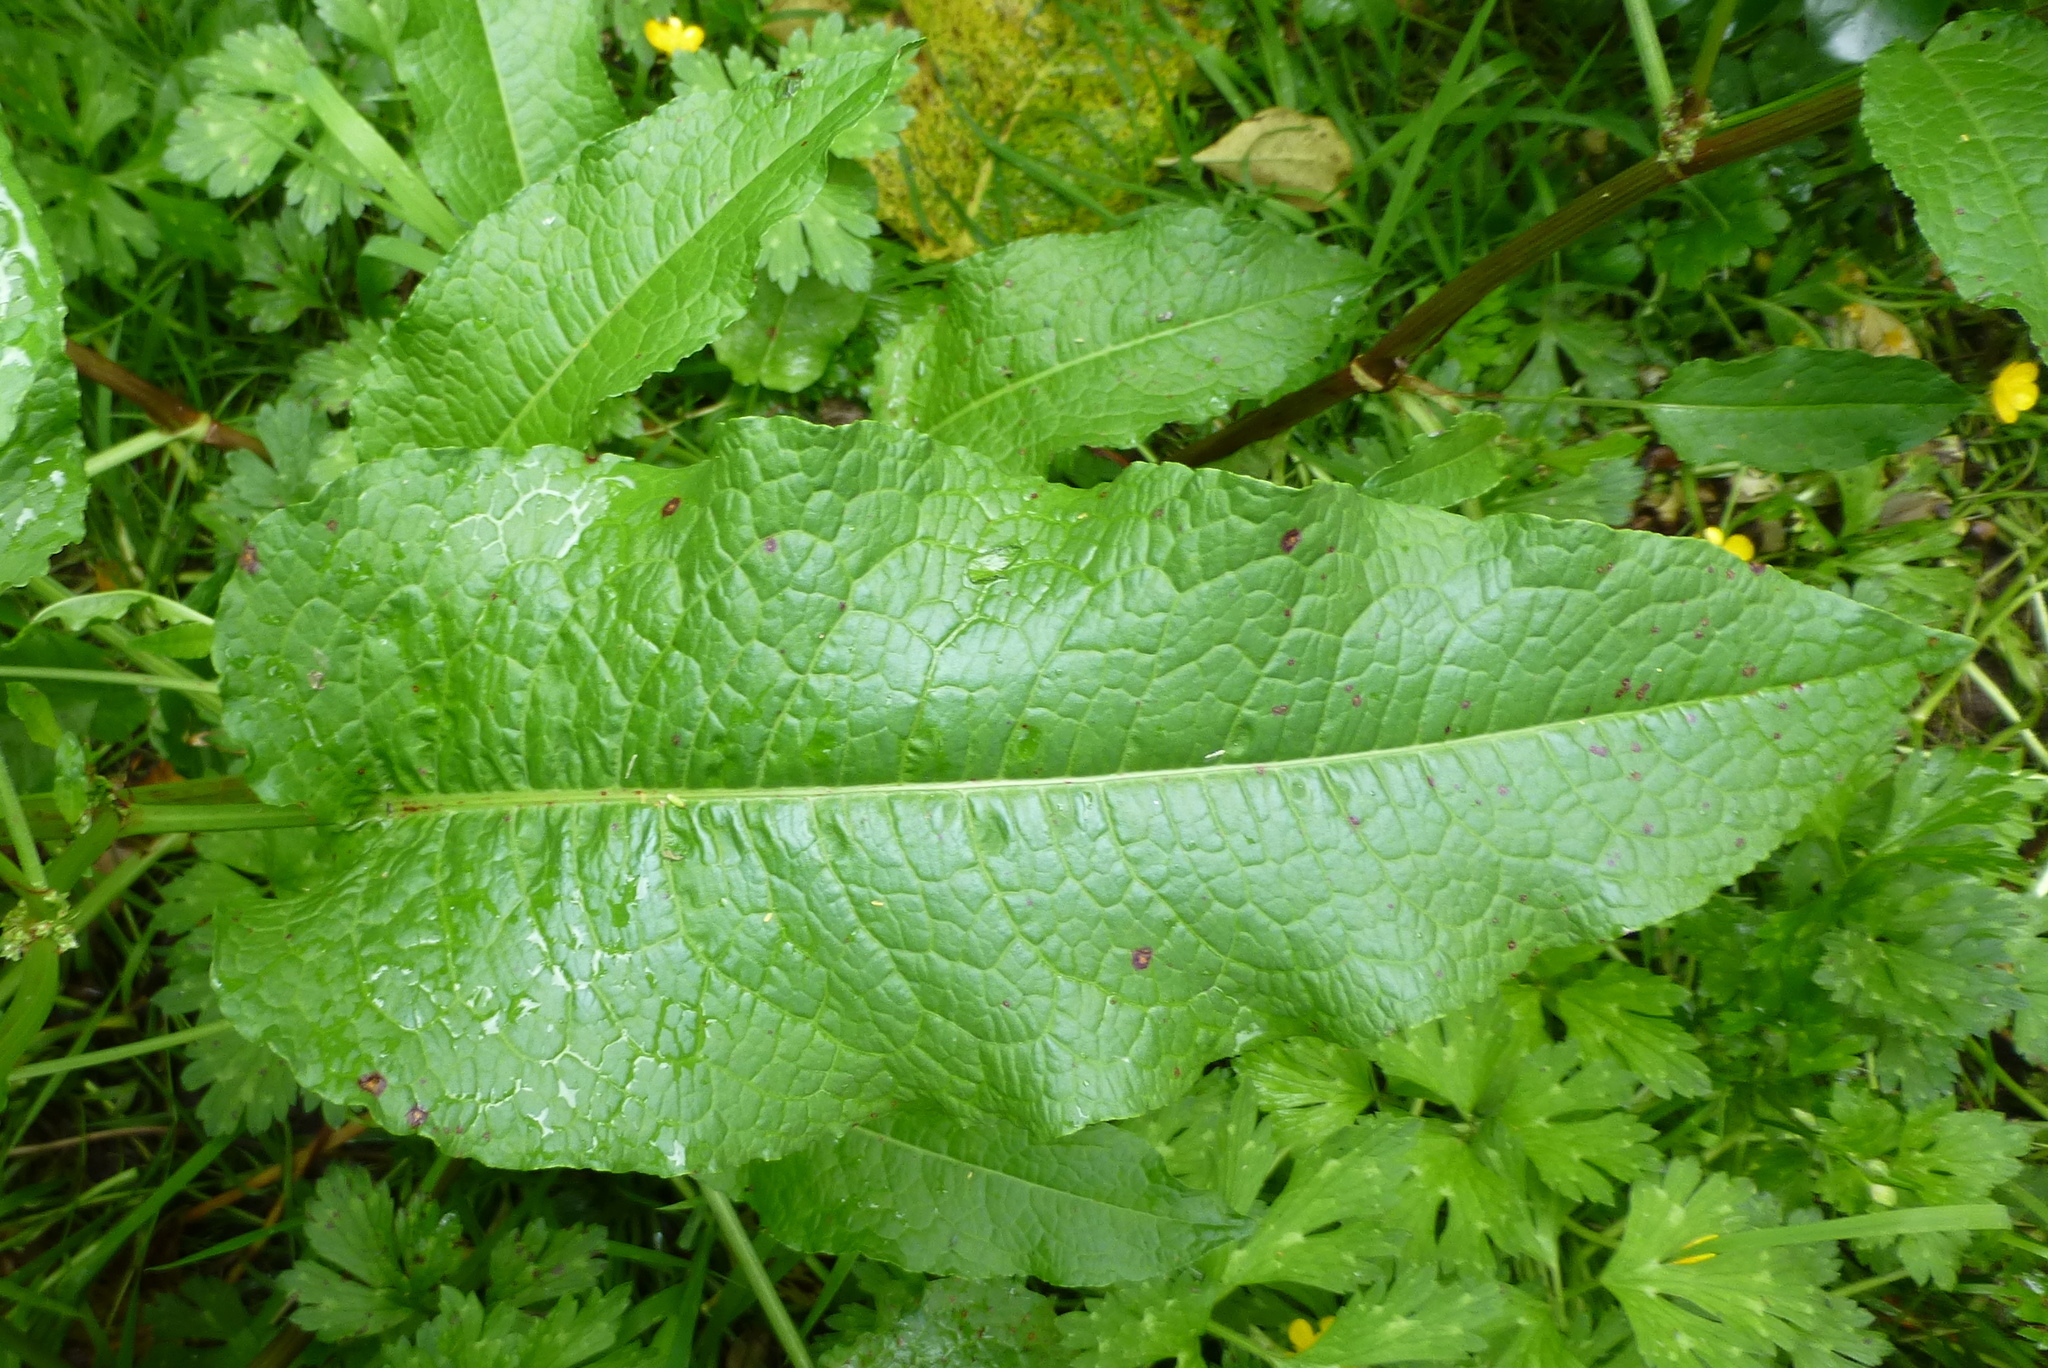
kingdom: Plantae
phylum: Tracheophyta
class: Magnoliopsida
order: Caryophyllales
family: Polygonaceae
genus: Rumex
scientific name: Rumex obtusifolius
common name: Bitter dock
